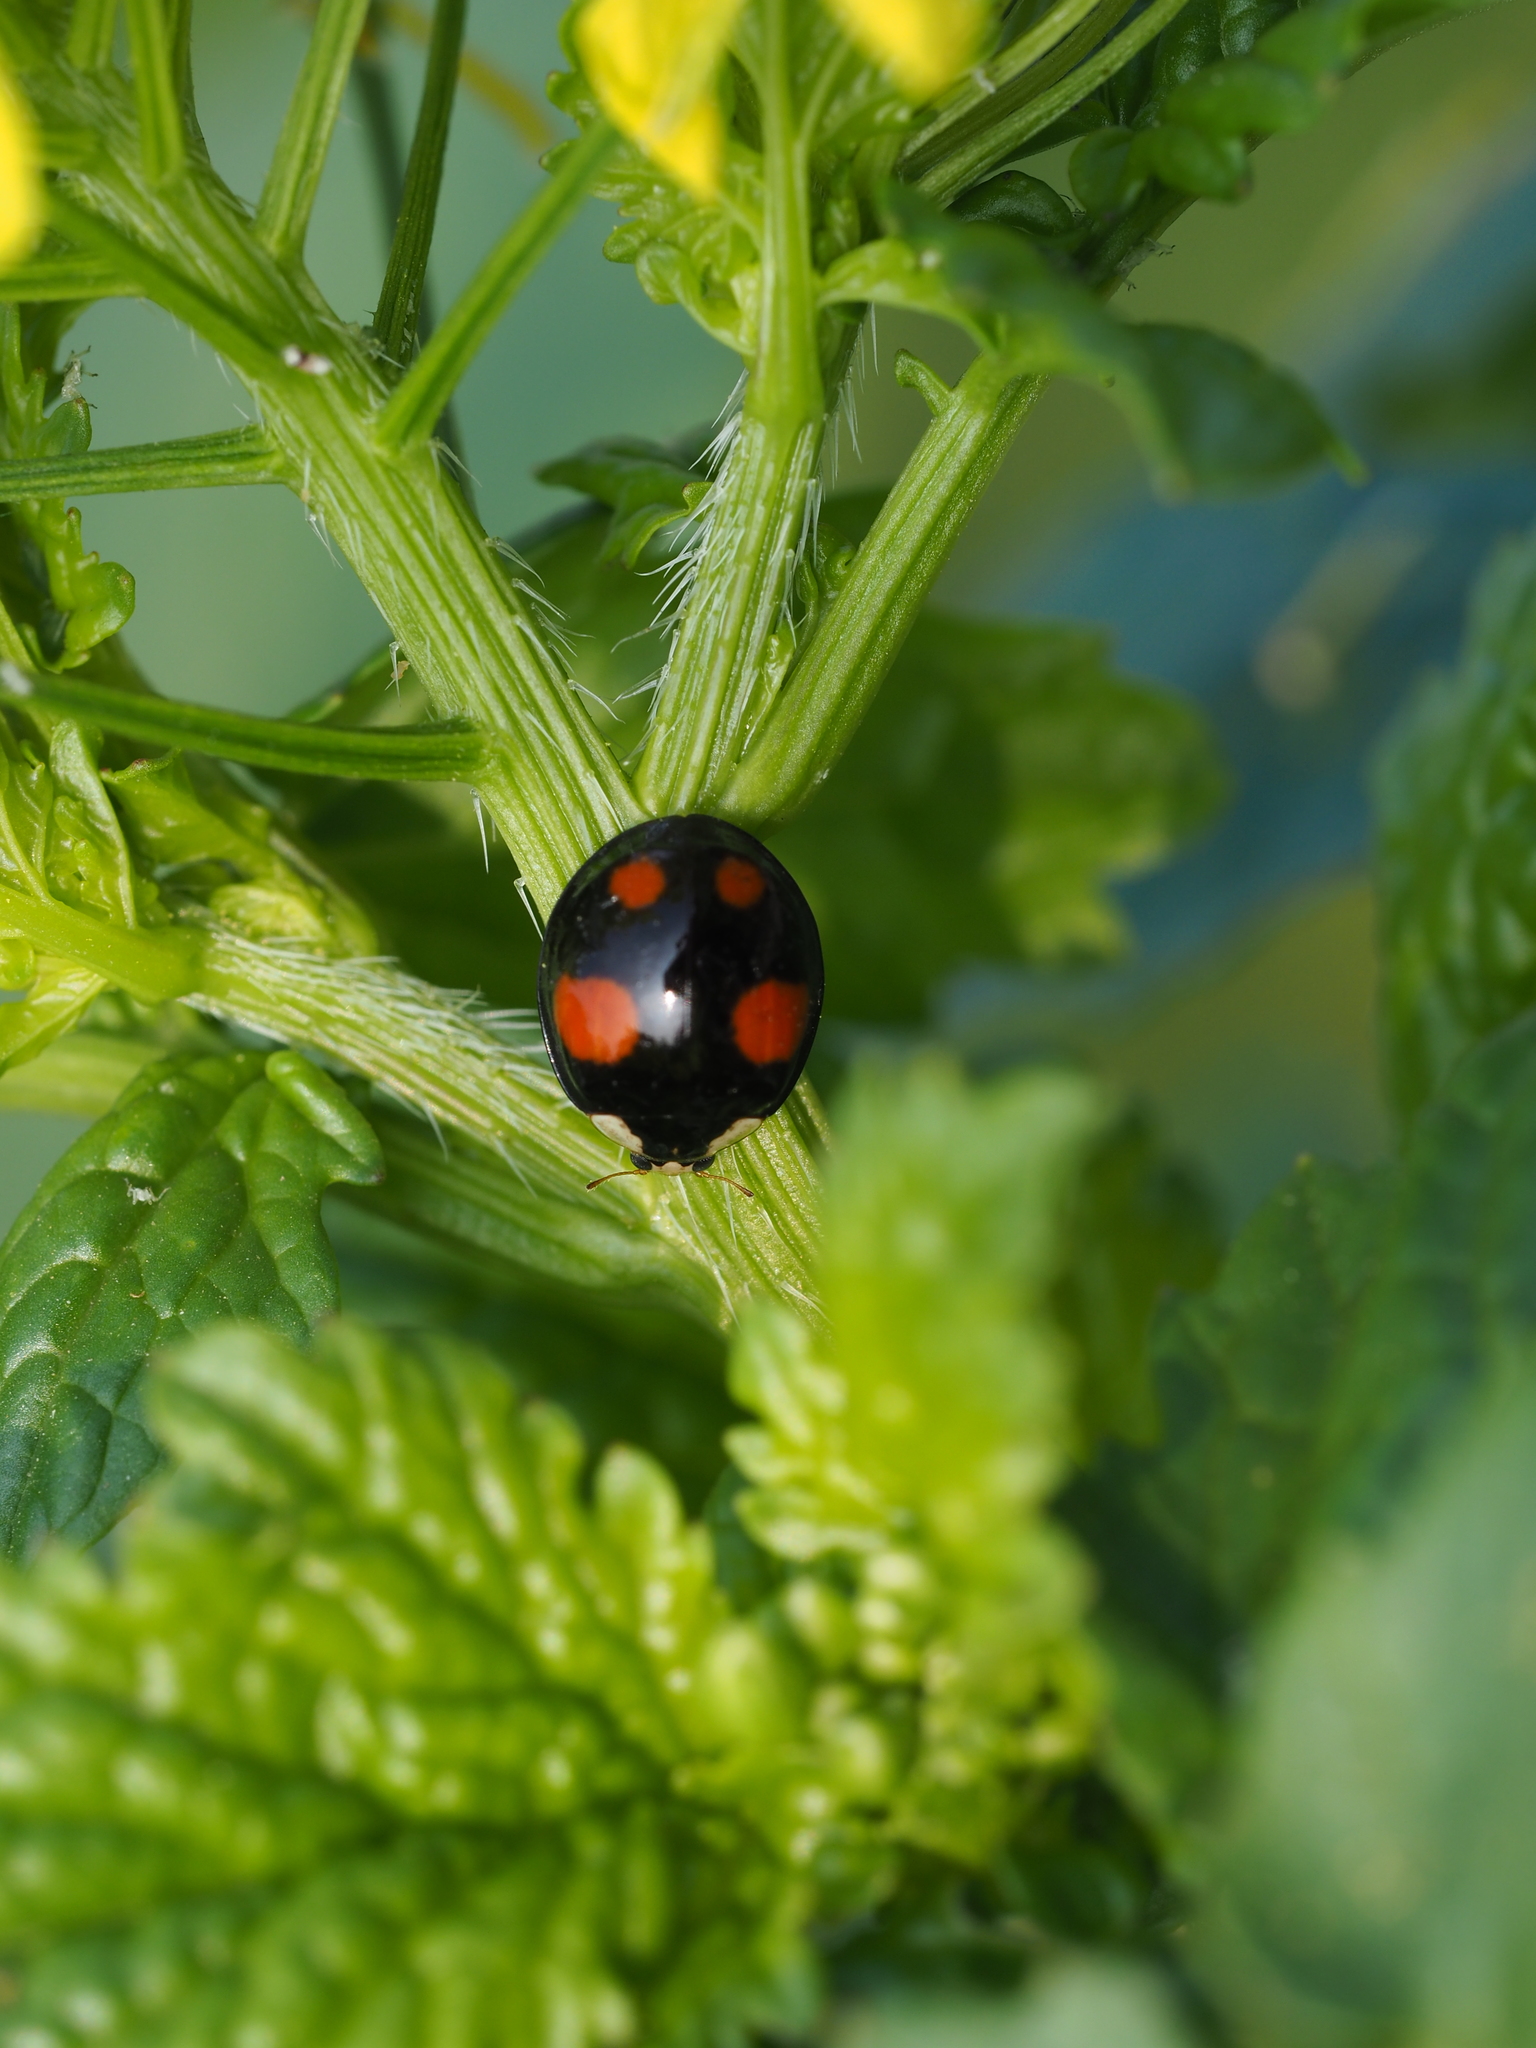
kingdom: Animalia
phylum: Arthropoda
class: Insecta
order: Coleoptera
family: Coccinellidae
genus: Harmonia
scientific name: Harmonia axyridis
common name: Harlequin ladybird
